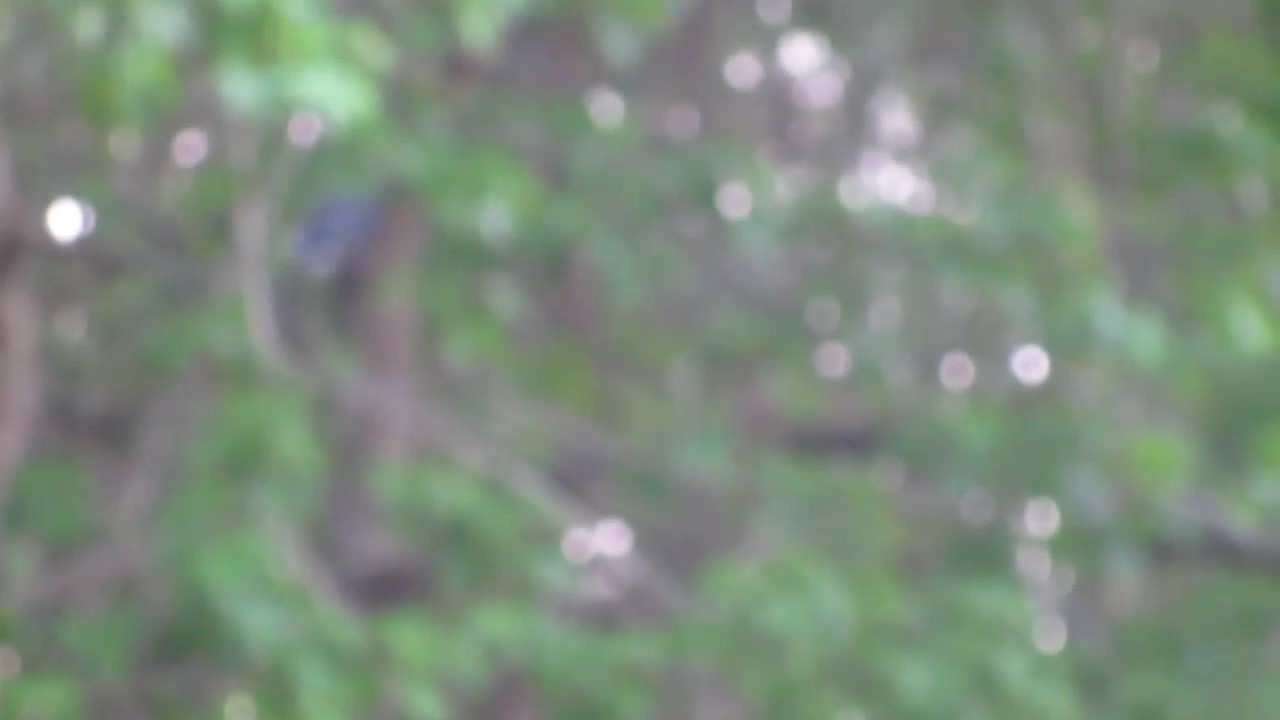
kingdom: Animalia
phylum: Chordata
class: Aves
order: Passeriformes
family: Corvidae
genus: Cyanocitta
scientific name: Cyanocitta cristata
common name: Blue jay
